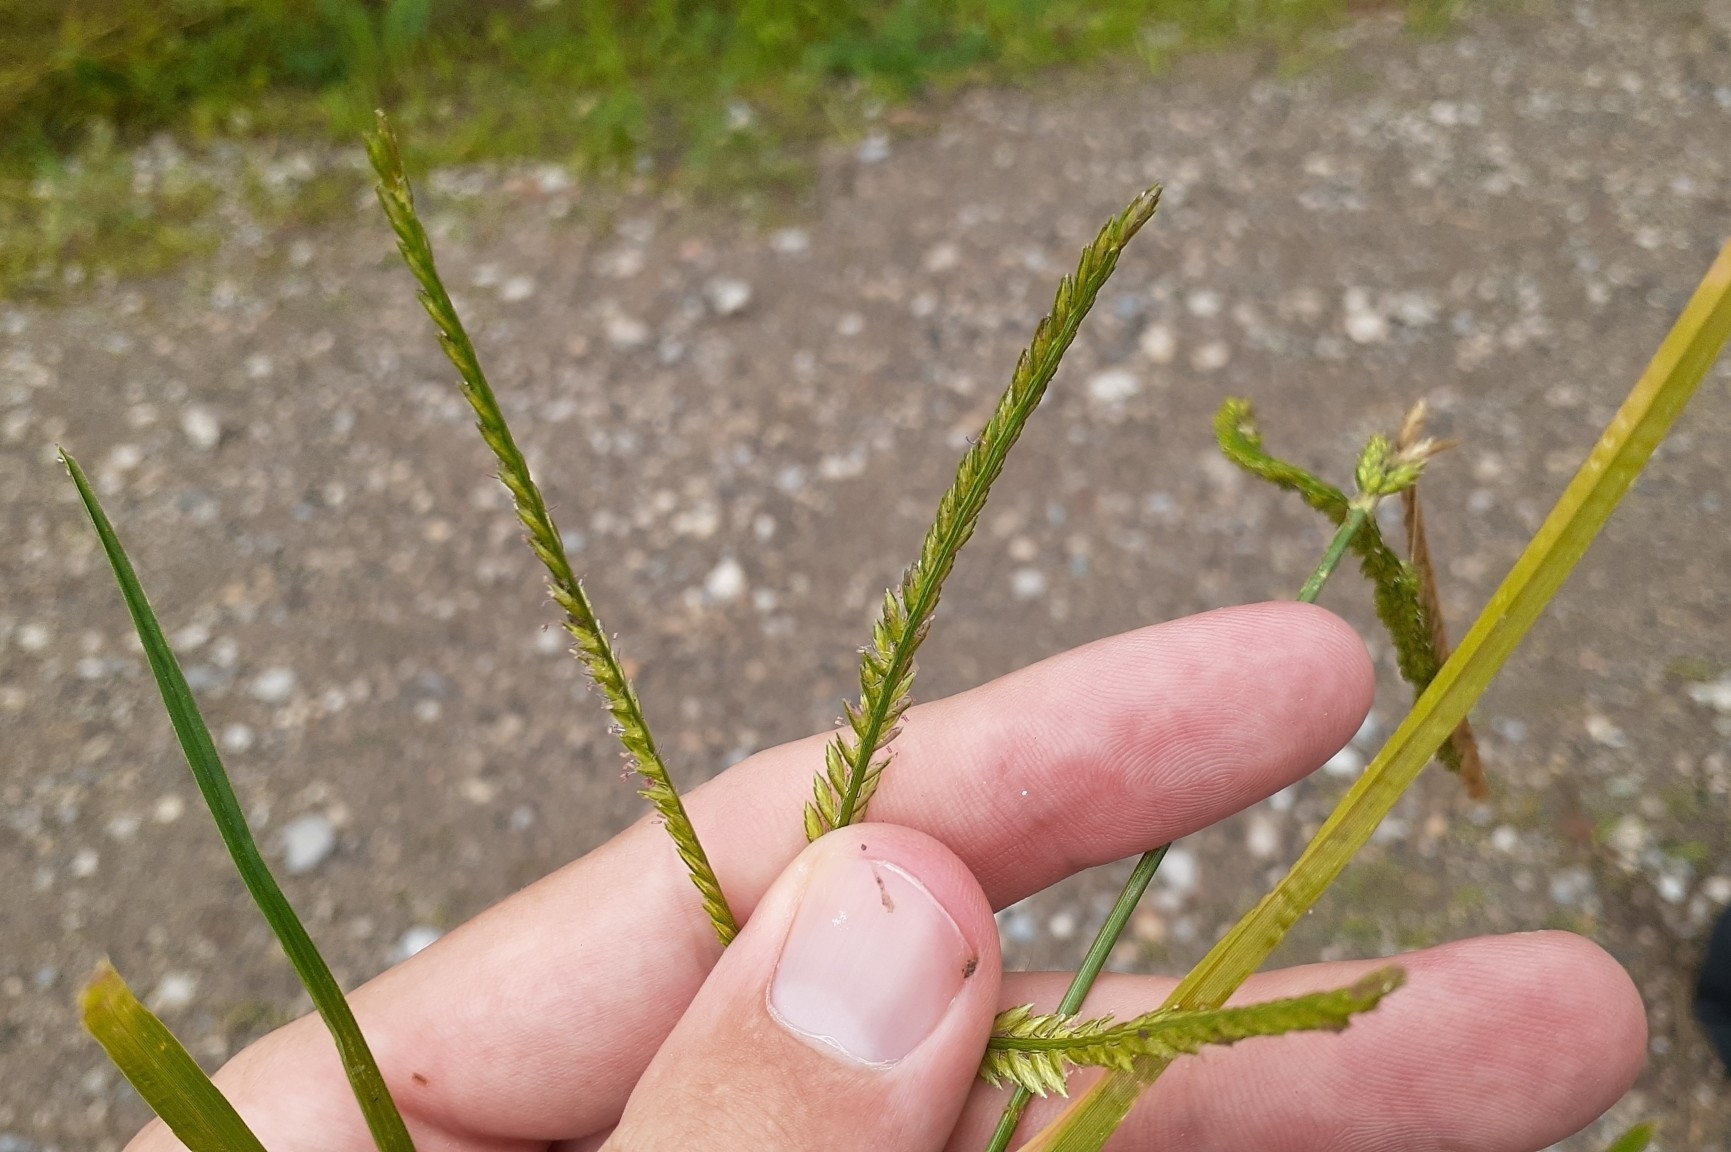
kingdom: Plantae
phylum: Tracheophyta
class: Liliopsida
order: Poales
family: Poaceae
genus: Eleusine
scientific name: Eleusine indica
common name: Yard-grass
